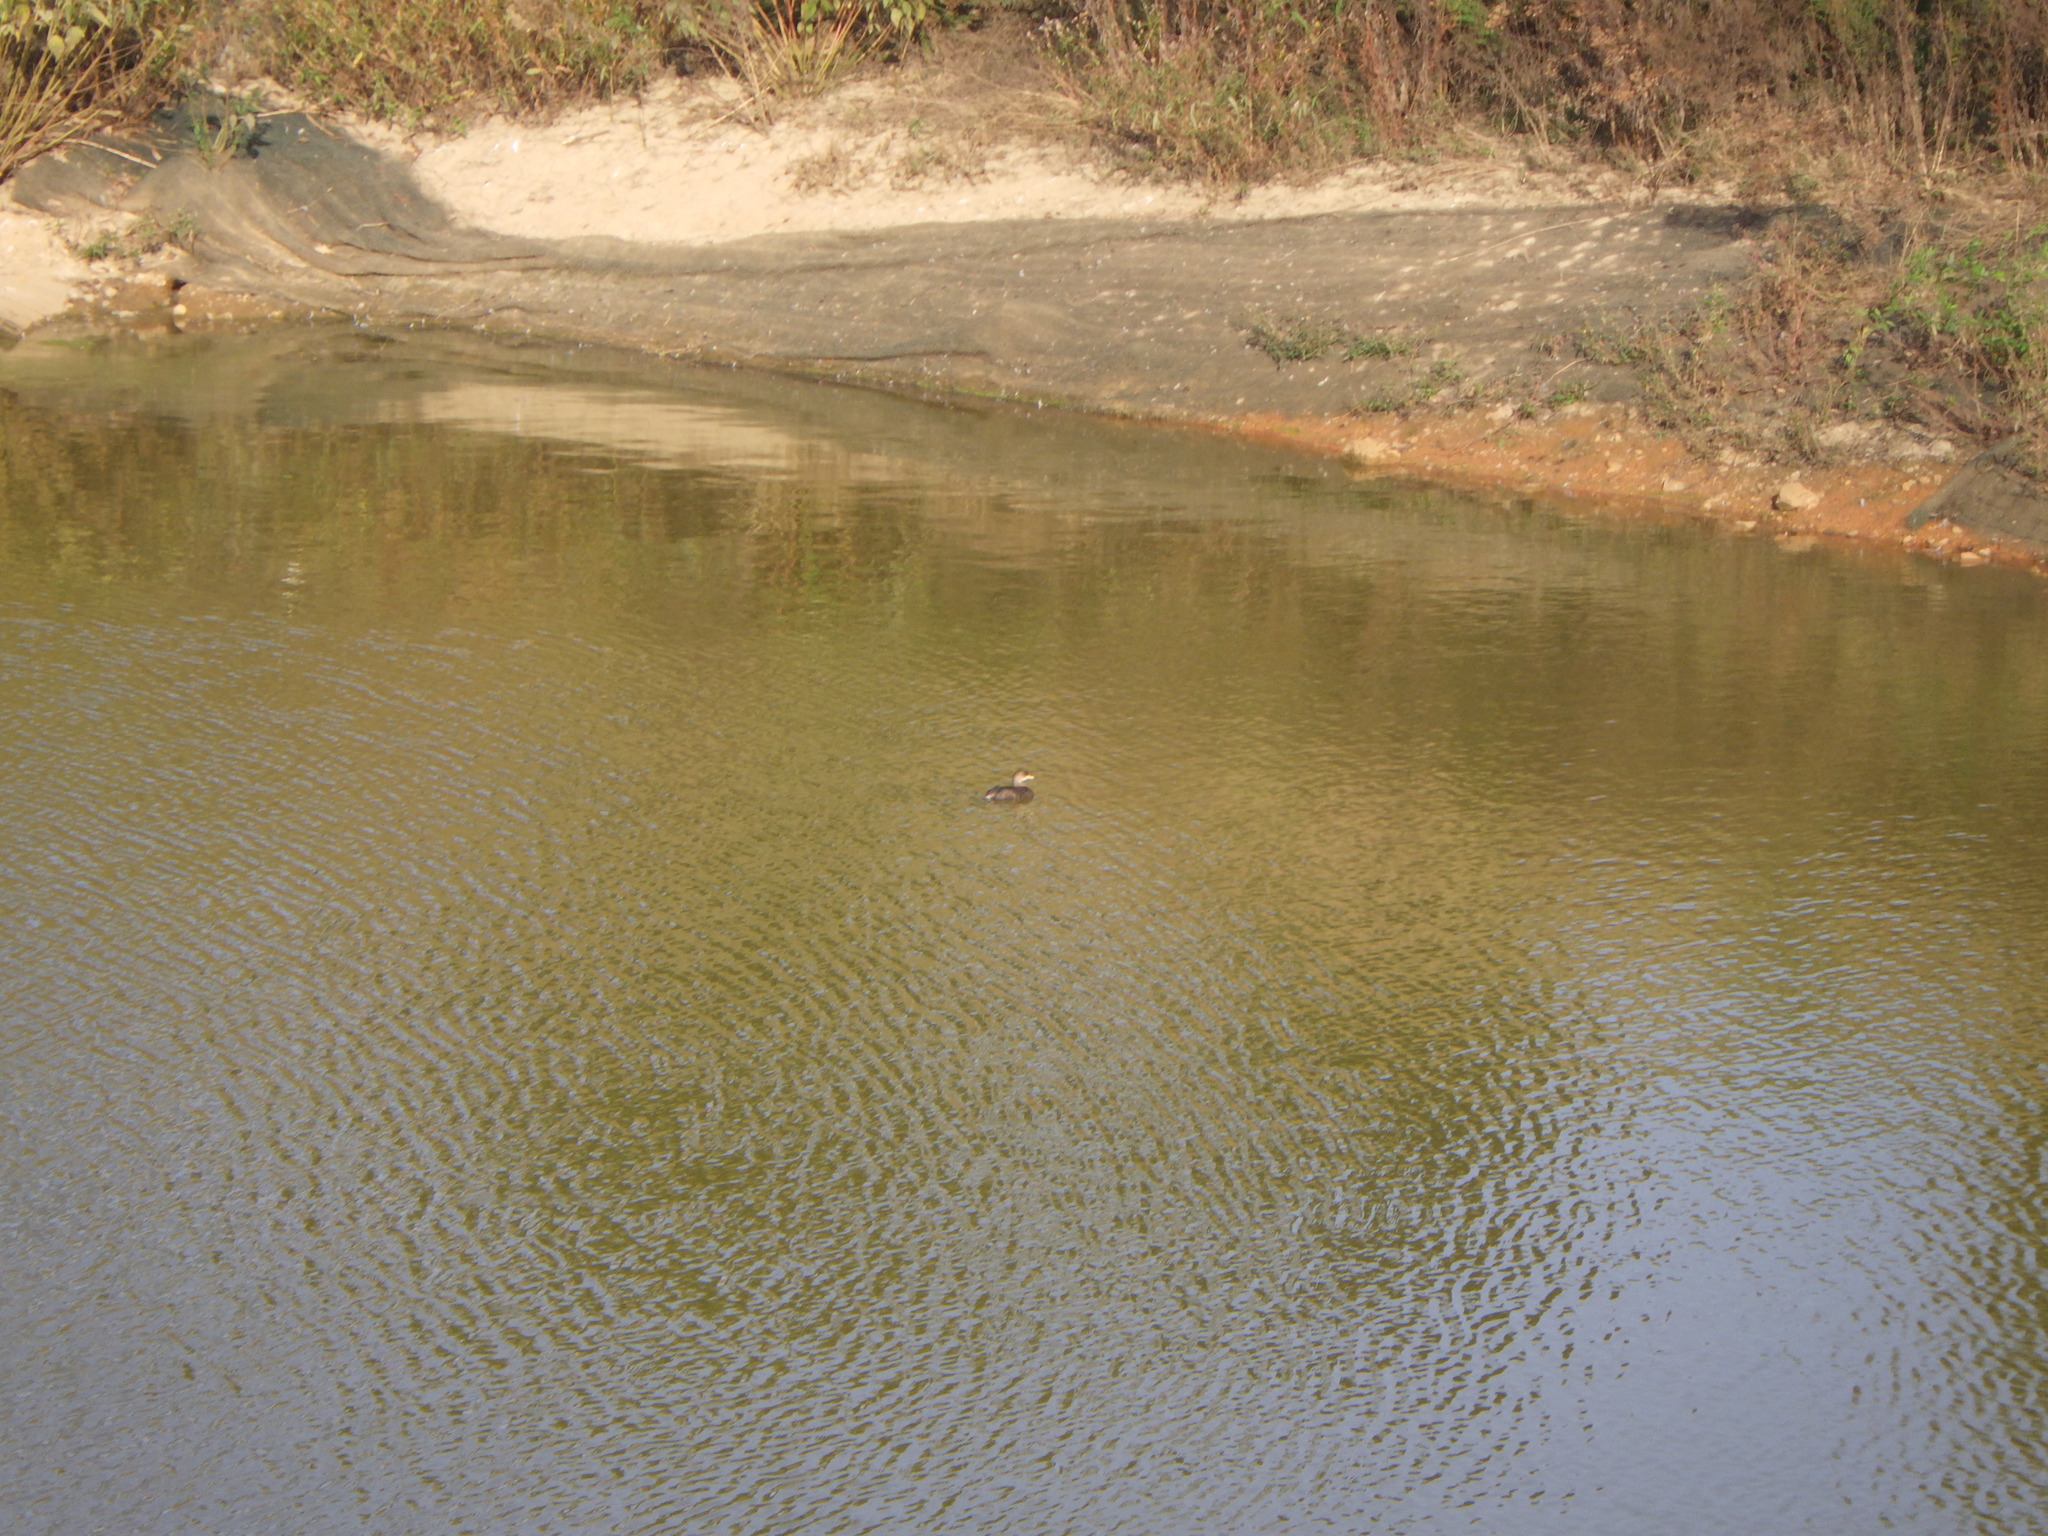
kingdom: Animalia
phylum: Chordata
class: Aves
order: Podicipediformes
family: Podicipedidae
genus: Podilymbus
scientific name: Podilymbus podiceps
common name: Pied-billed grebe
